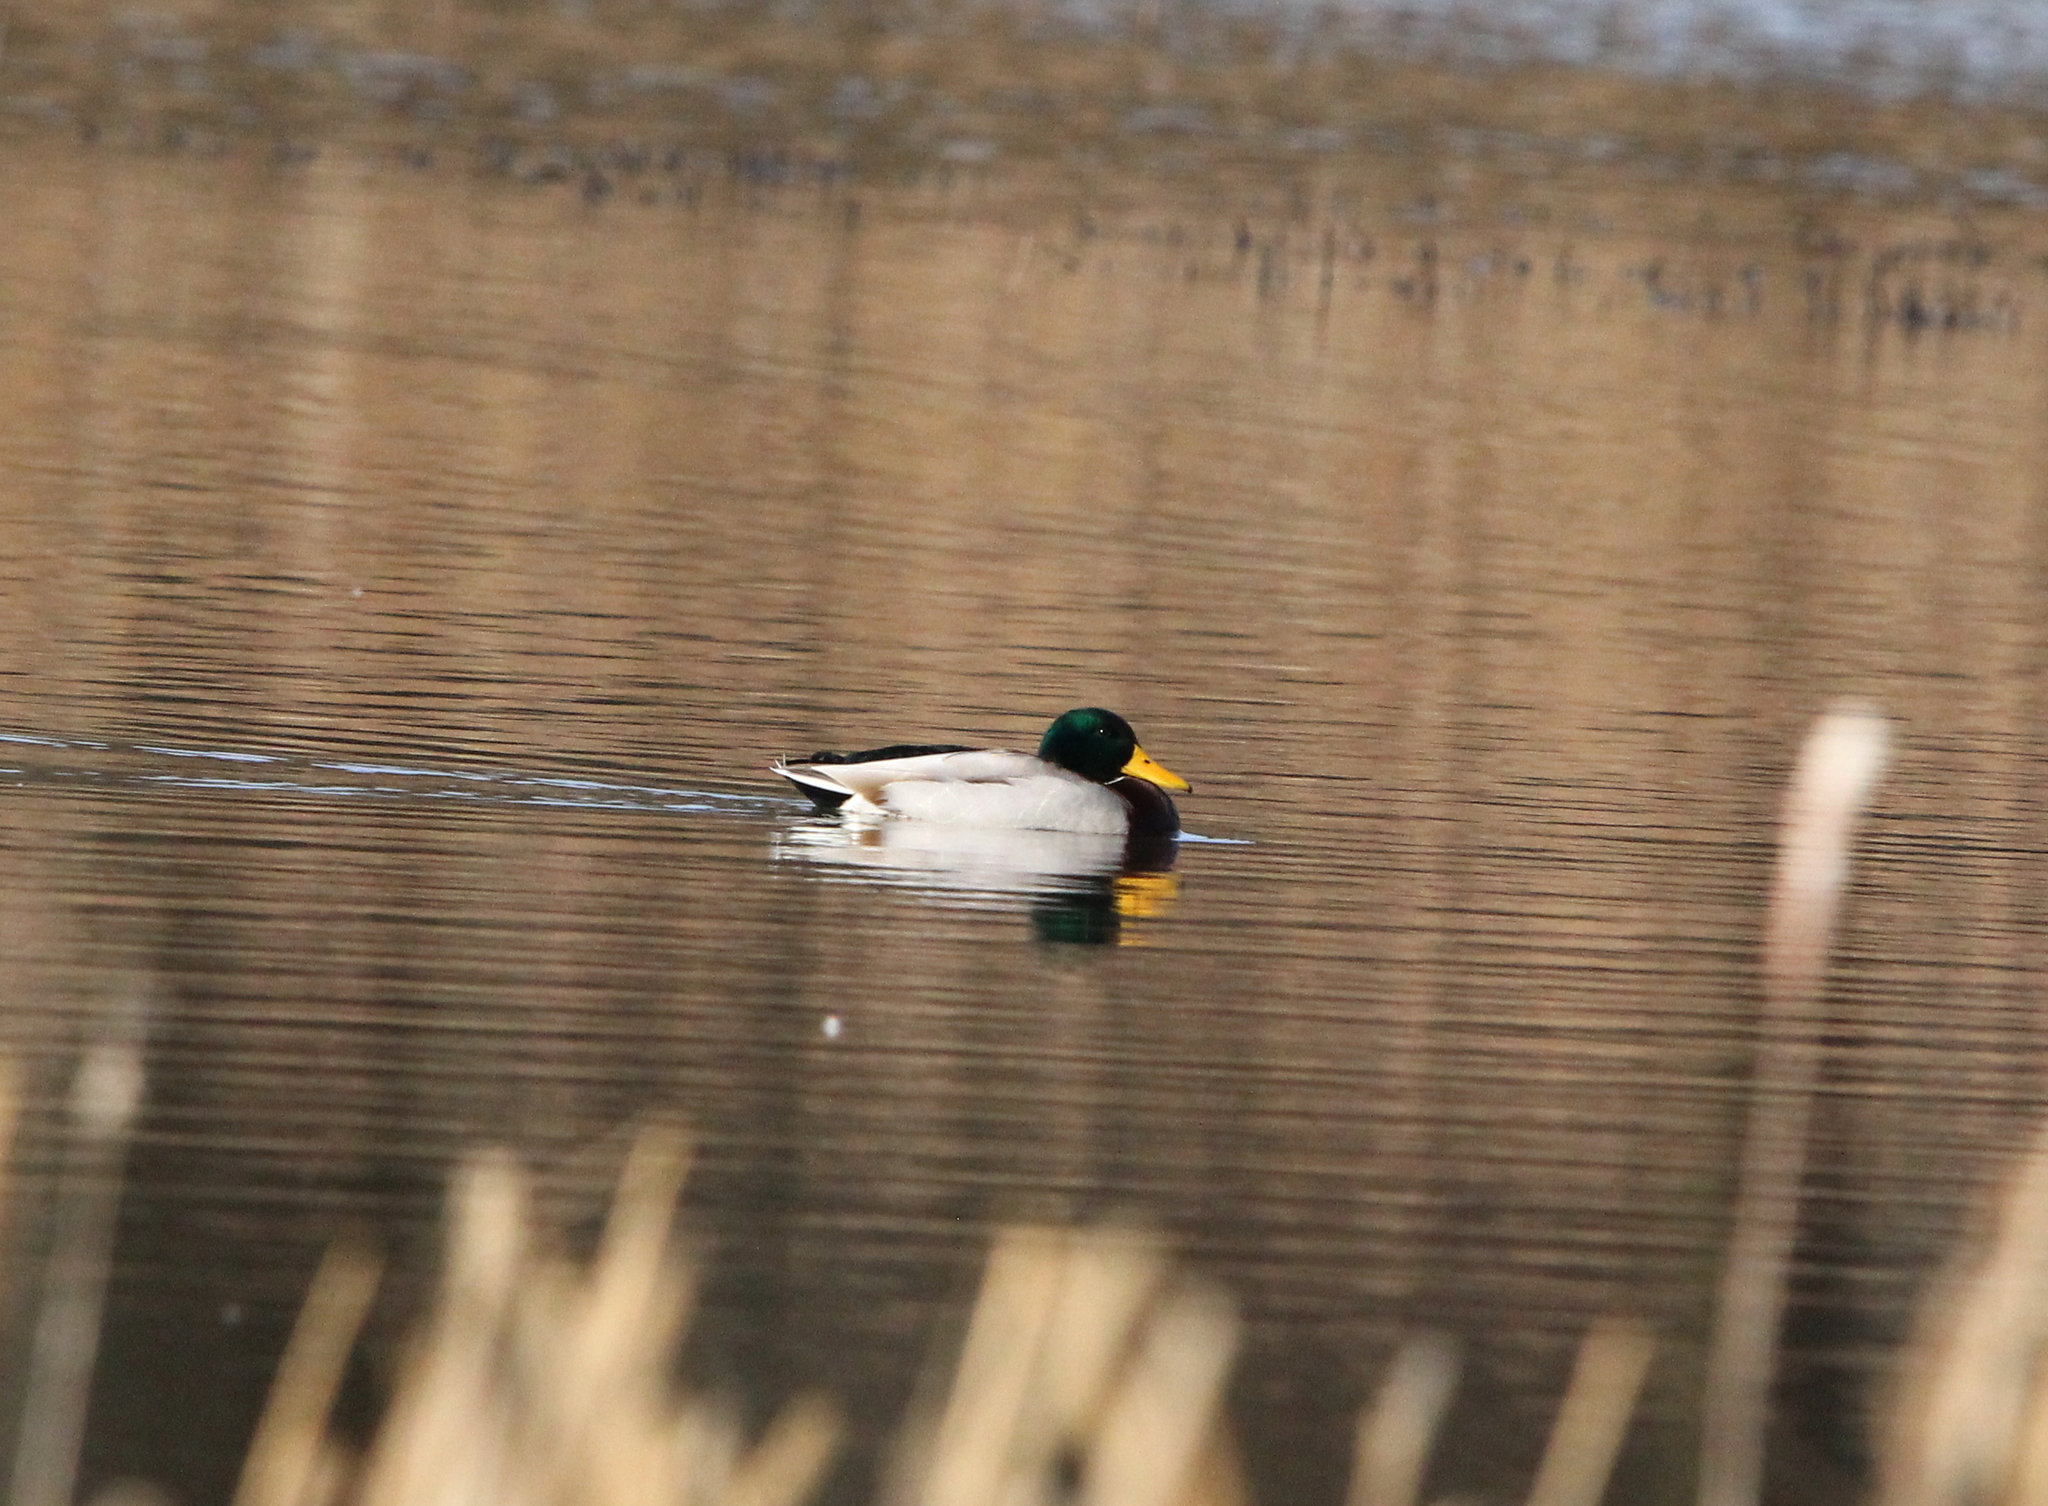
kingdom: Animalia
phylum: Chordata
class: Aves
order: Anseriformes
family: Anatidae
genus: Anas
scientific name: Anas platyrhynchos
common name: Mallard
